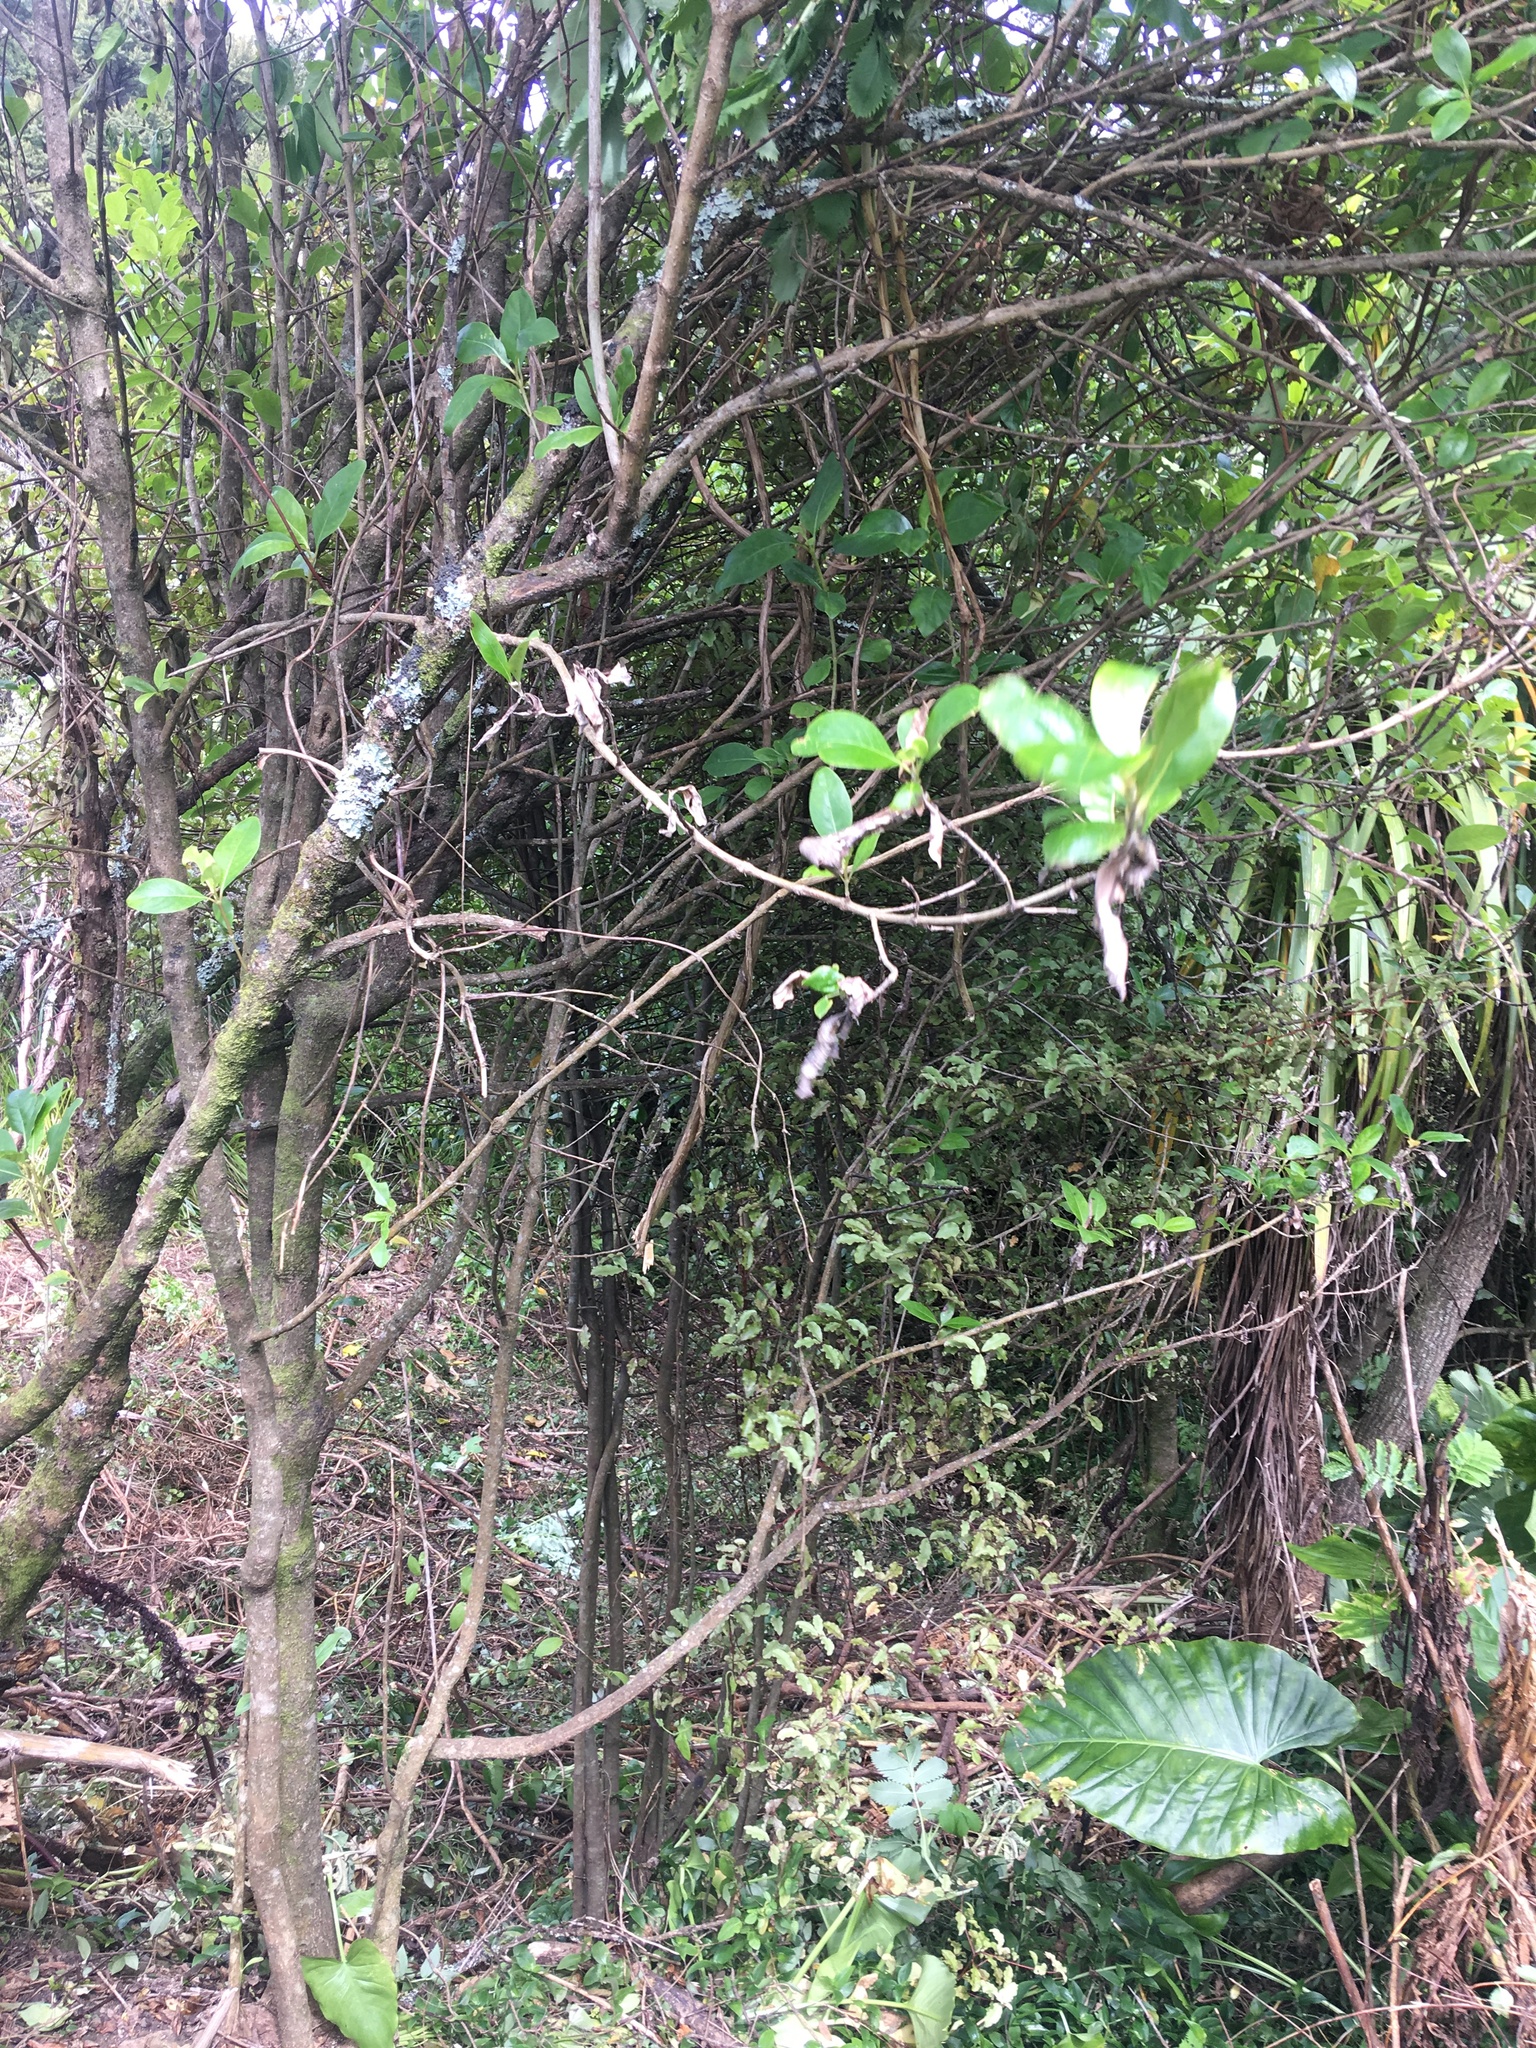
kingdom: Plantae
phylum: Tracheophyta
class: Magnoliopsida
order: Ericales
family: Primulaceae
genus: Myrsine
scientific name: Myrsine australis
